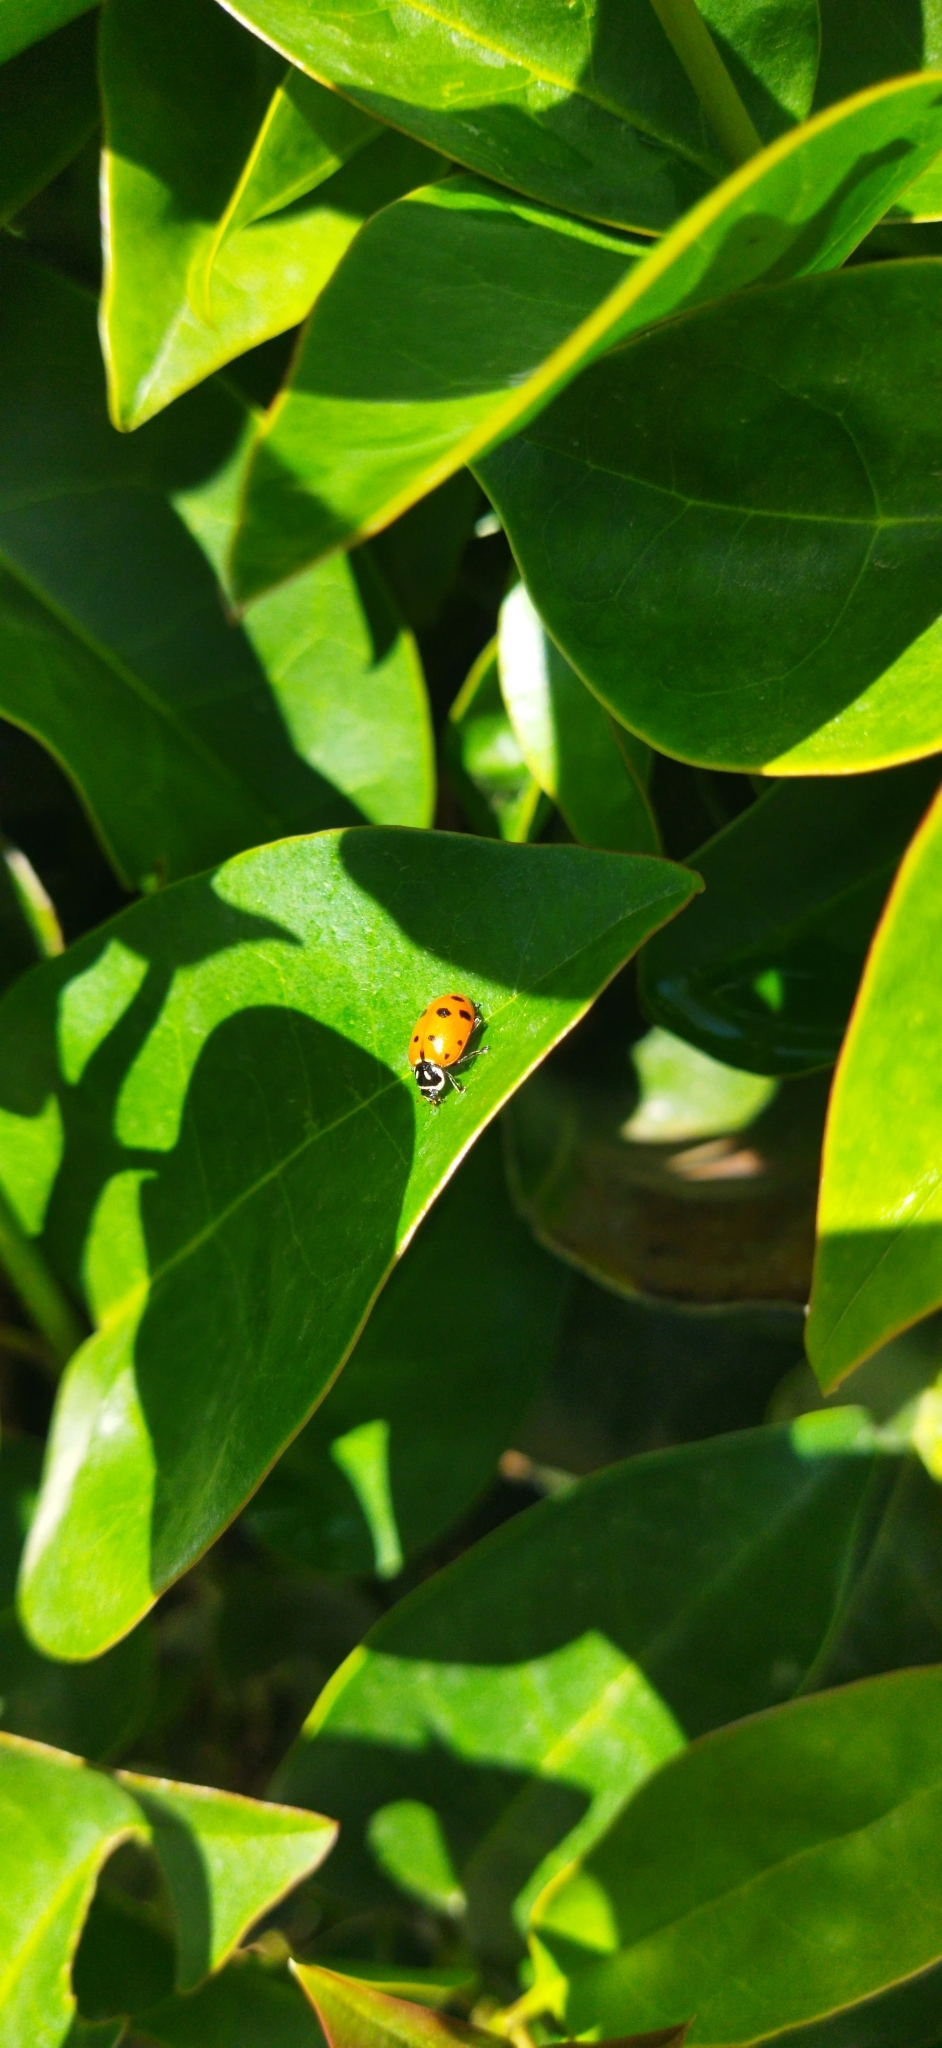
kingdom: Animalia
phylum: Arthropoda
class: Insecta
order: Coleoptera
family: Coccinellidae
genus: Hippodamia
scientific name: Hippodamia convergens
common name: Convergent lady beetle
